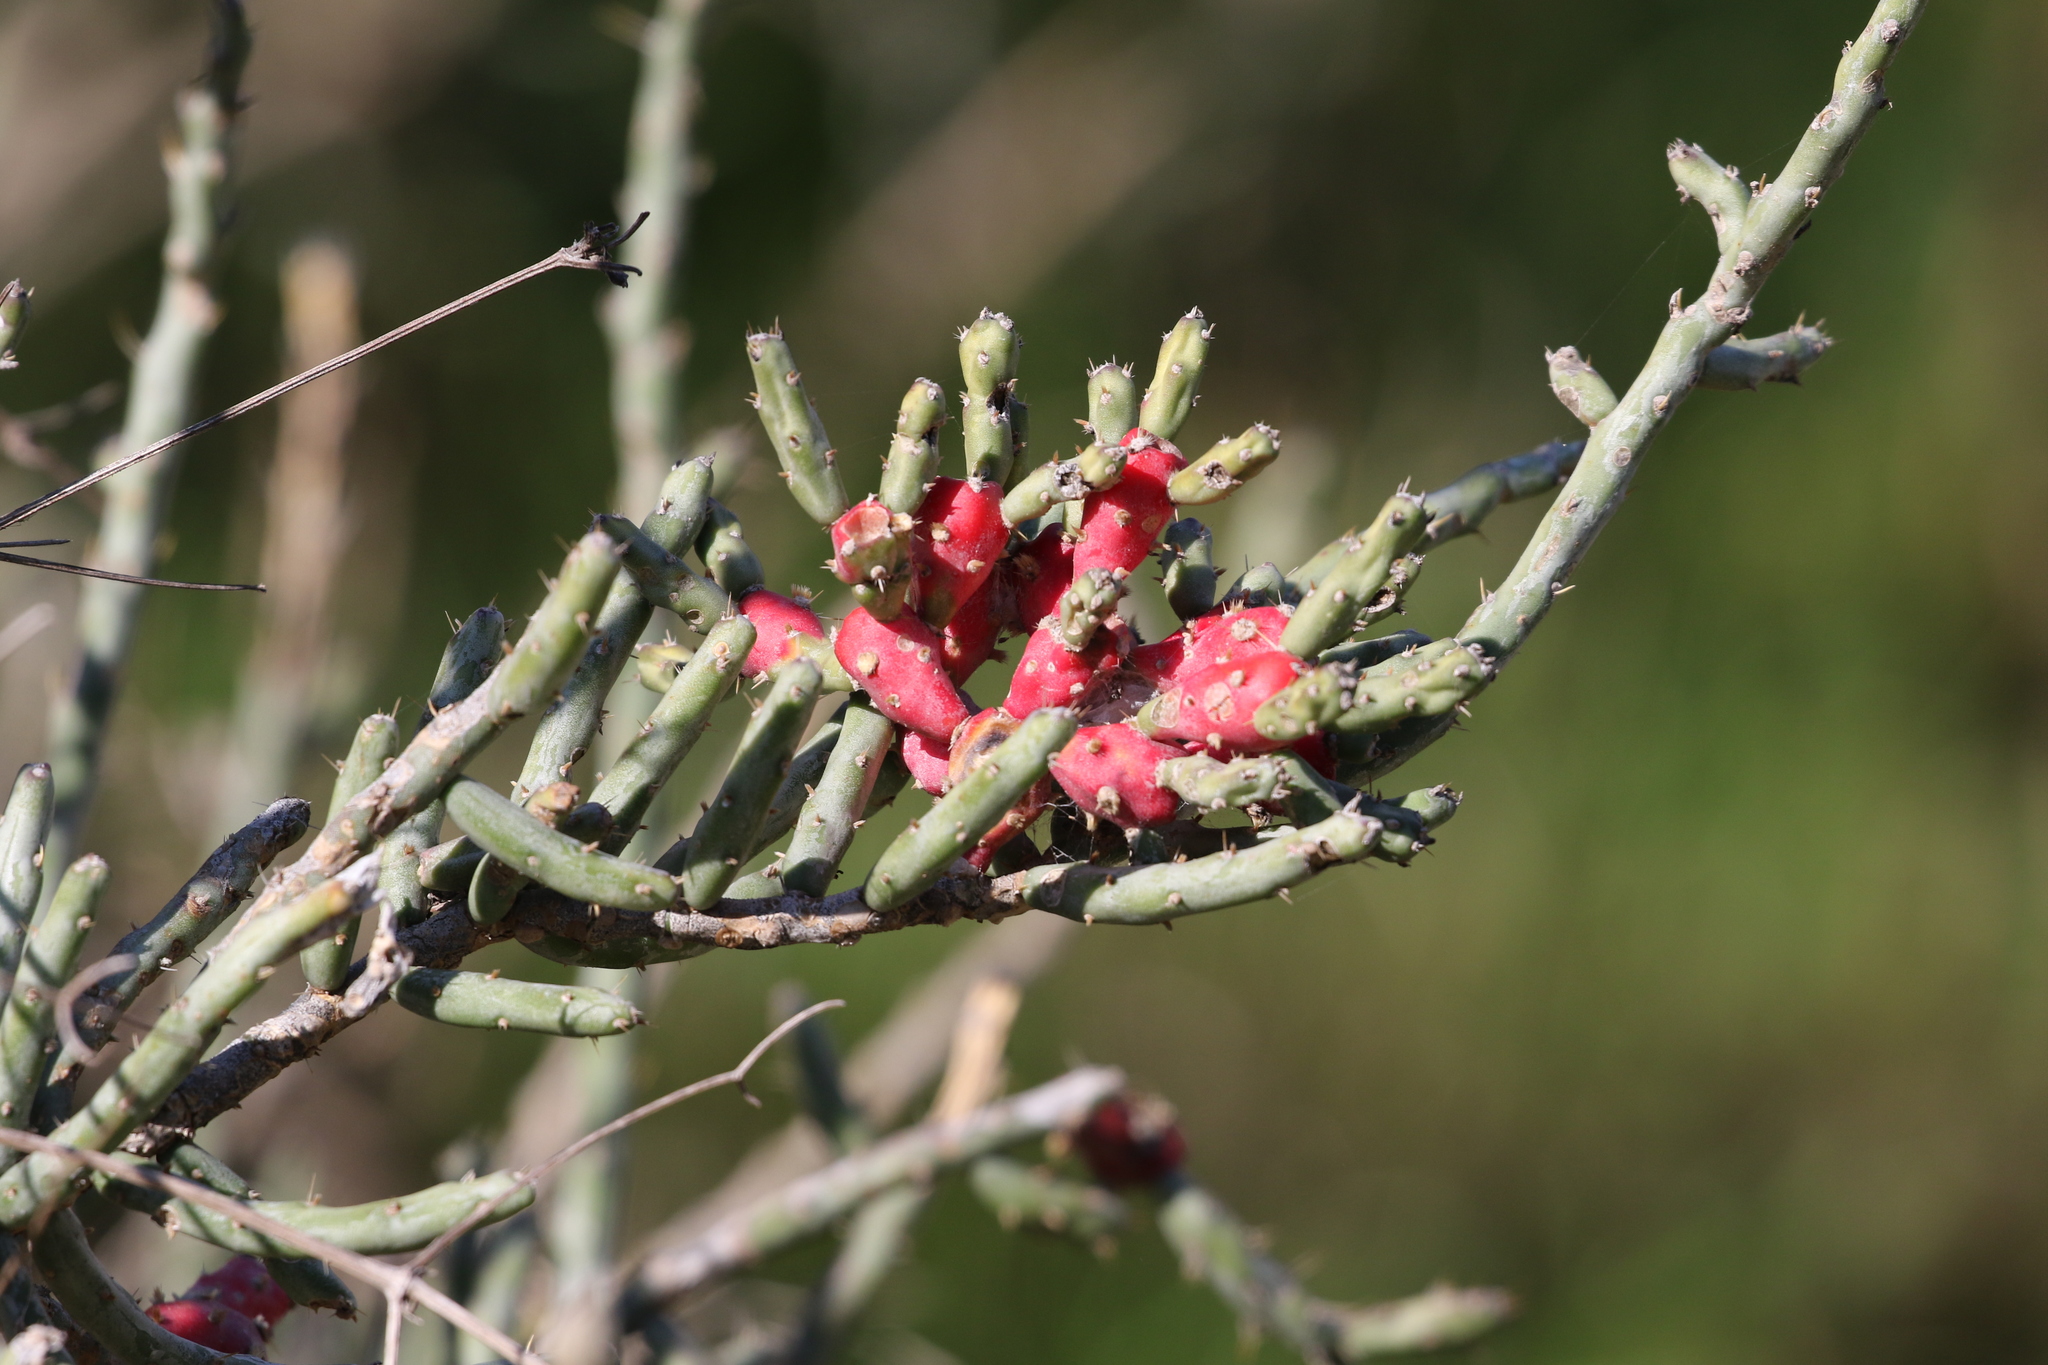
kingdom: Plantae
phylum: Tracheophyta
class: Magnoliopsida
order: Caryophyllales
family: Cactaceae
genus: Cylindropuntia
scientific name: Cylindropuntia leptocaulis
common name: Christmas cactus
